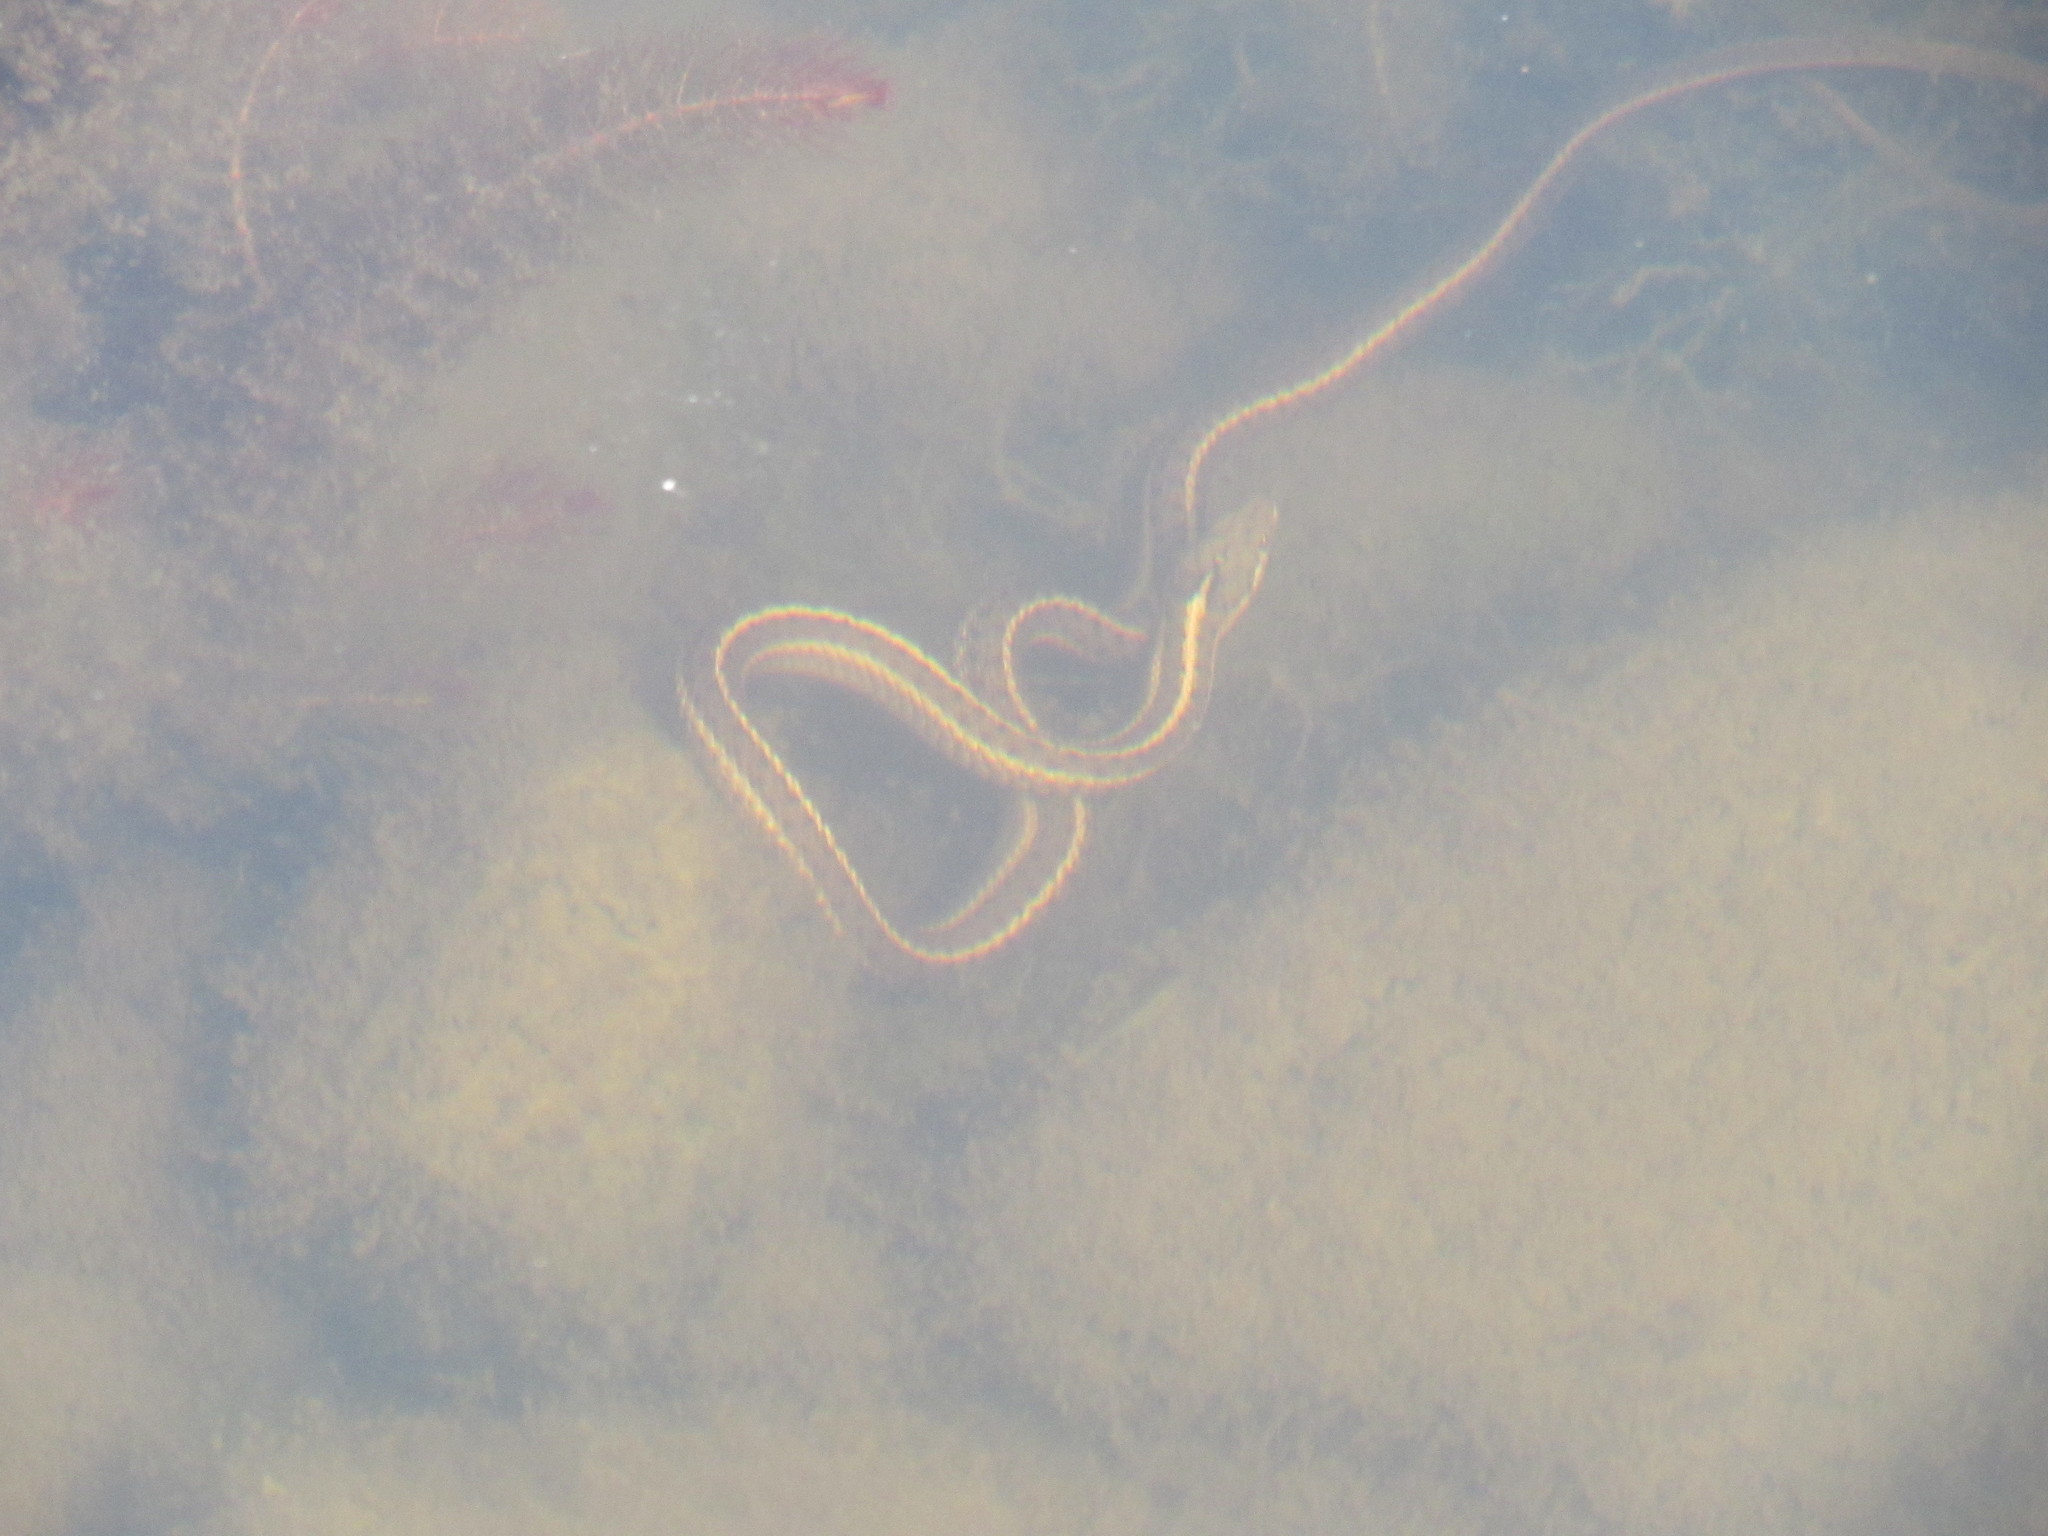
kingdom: Animalia
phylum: Chordata
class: Squamata
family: Colubridae
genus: Thamnophis
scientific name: Thamnophis elegans
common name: Western terrestrial garter snake
